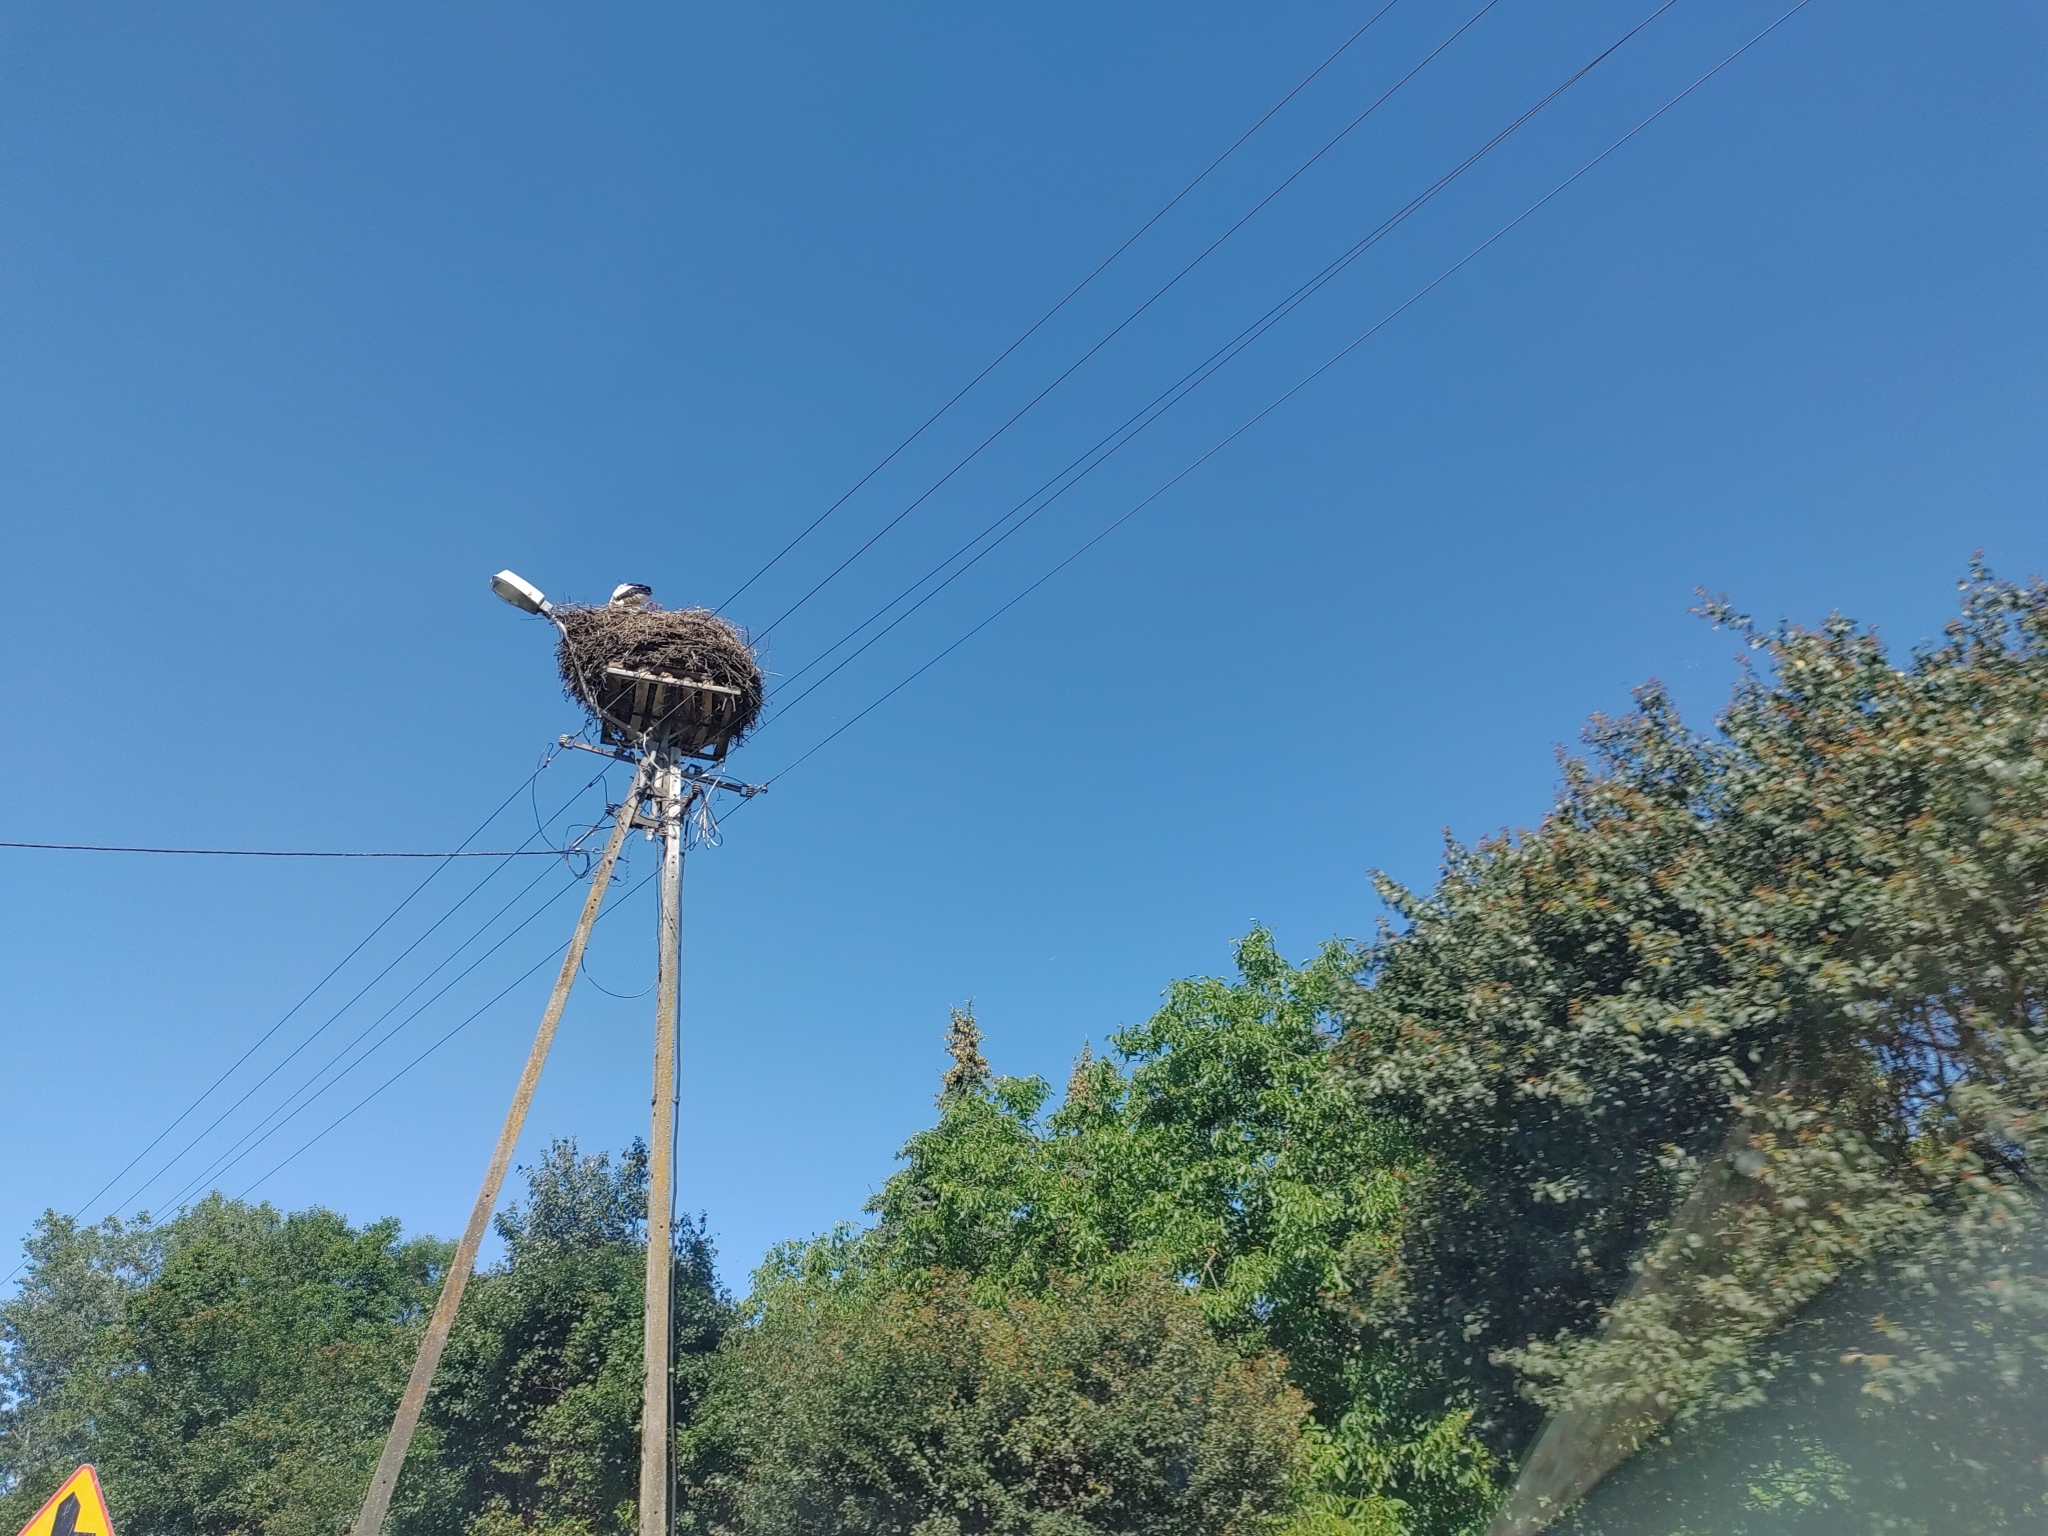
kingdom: Animalia
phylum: Chordata
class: Aves
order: Ciconiiformes
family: Ciconiidae
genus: Ciconia
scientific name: Ciconia ciconia
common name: White stork
